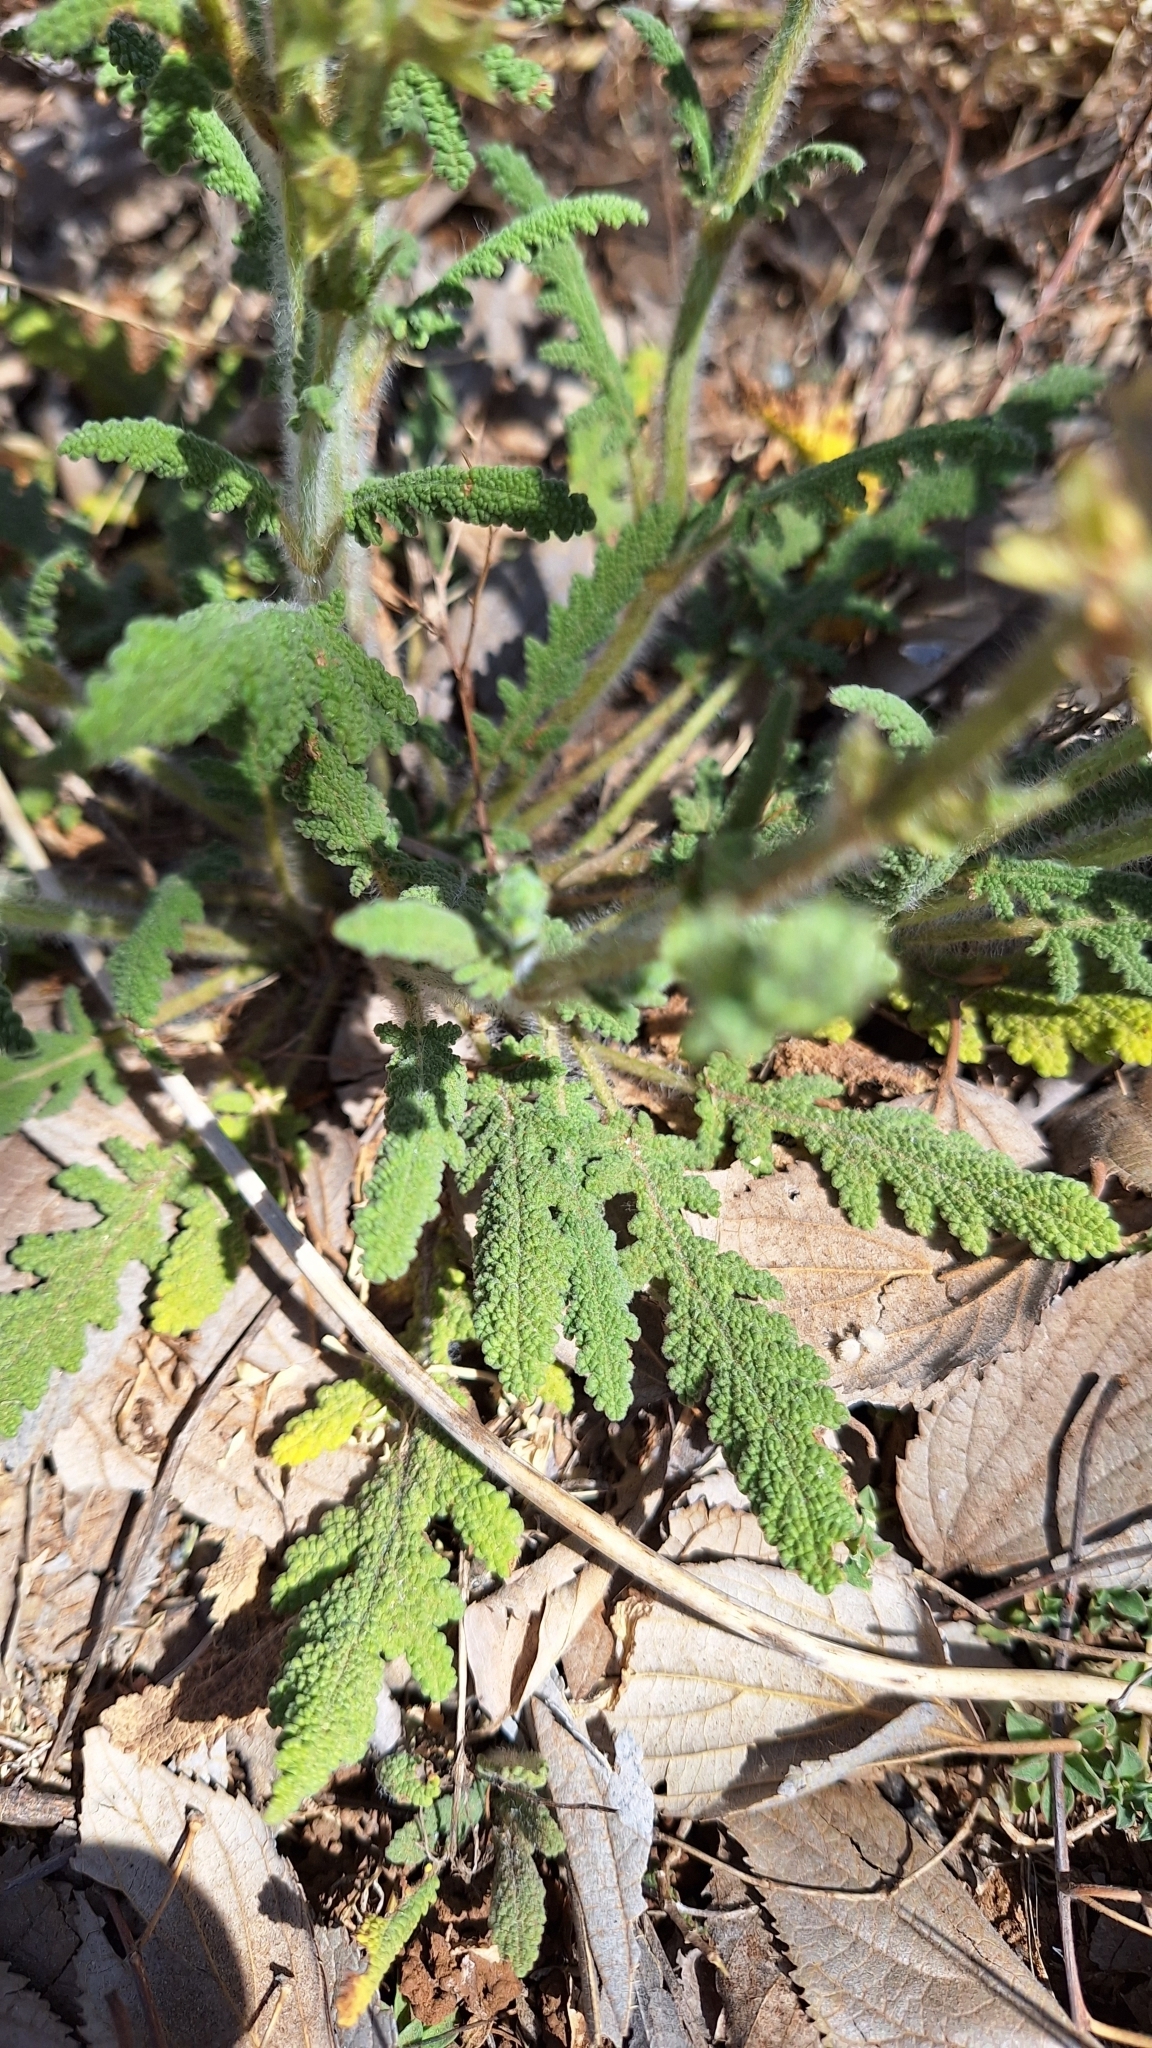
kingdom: Plantae
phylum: Tracheophyta
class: Magnoliopsida
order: Lamiales
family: Lamiaceae
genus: Salvia
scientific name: Salvia verbenaca
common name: Wild clary
